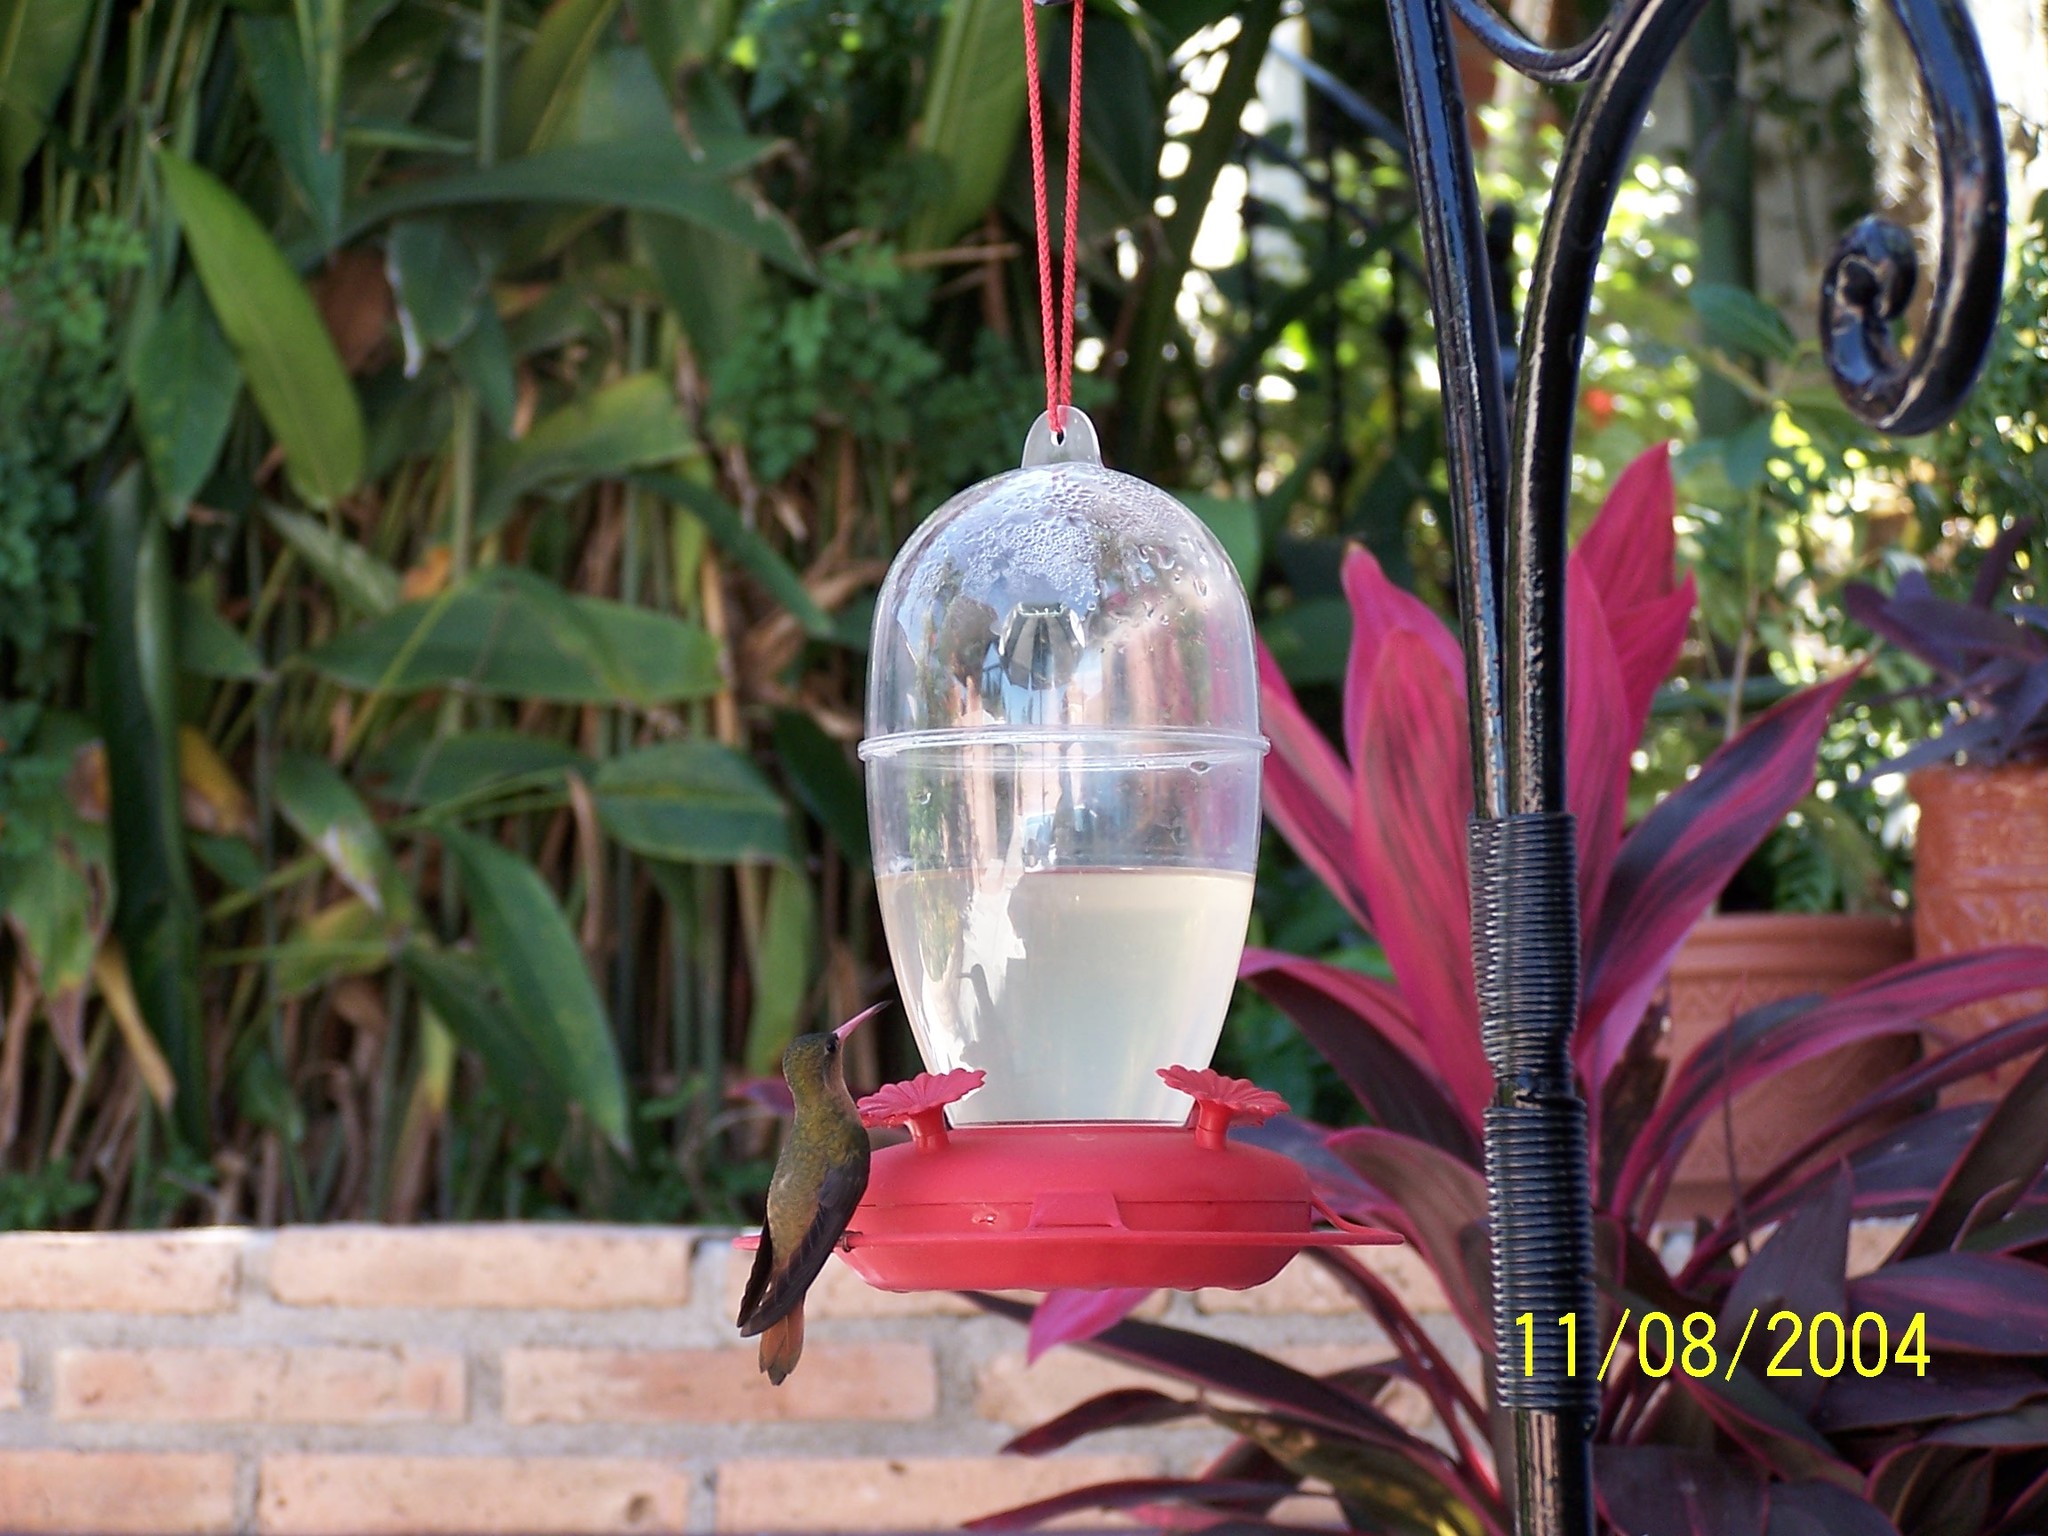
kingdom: Animalia
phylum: Chordata
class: Aves
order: Apodiformes
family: Trochilidae
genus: Amazilia
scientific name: Amazilia rutila
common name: Cinnamon hummingbird
